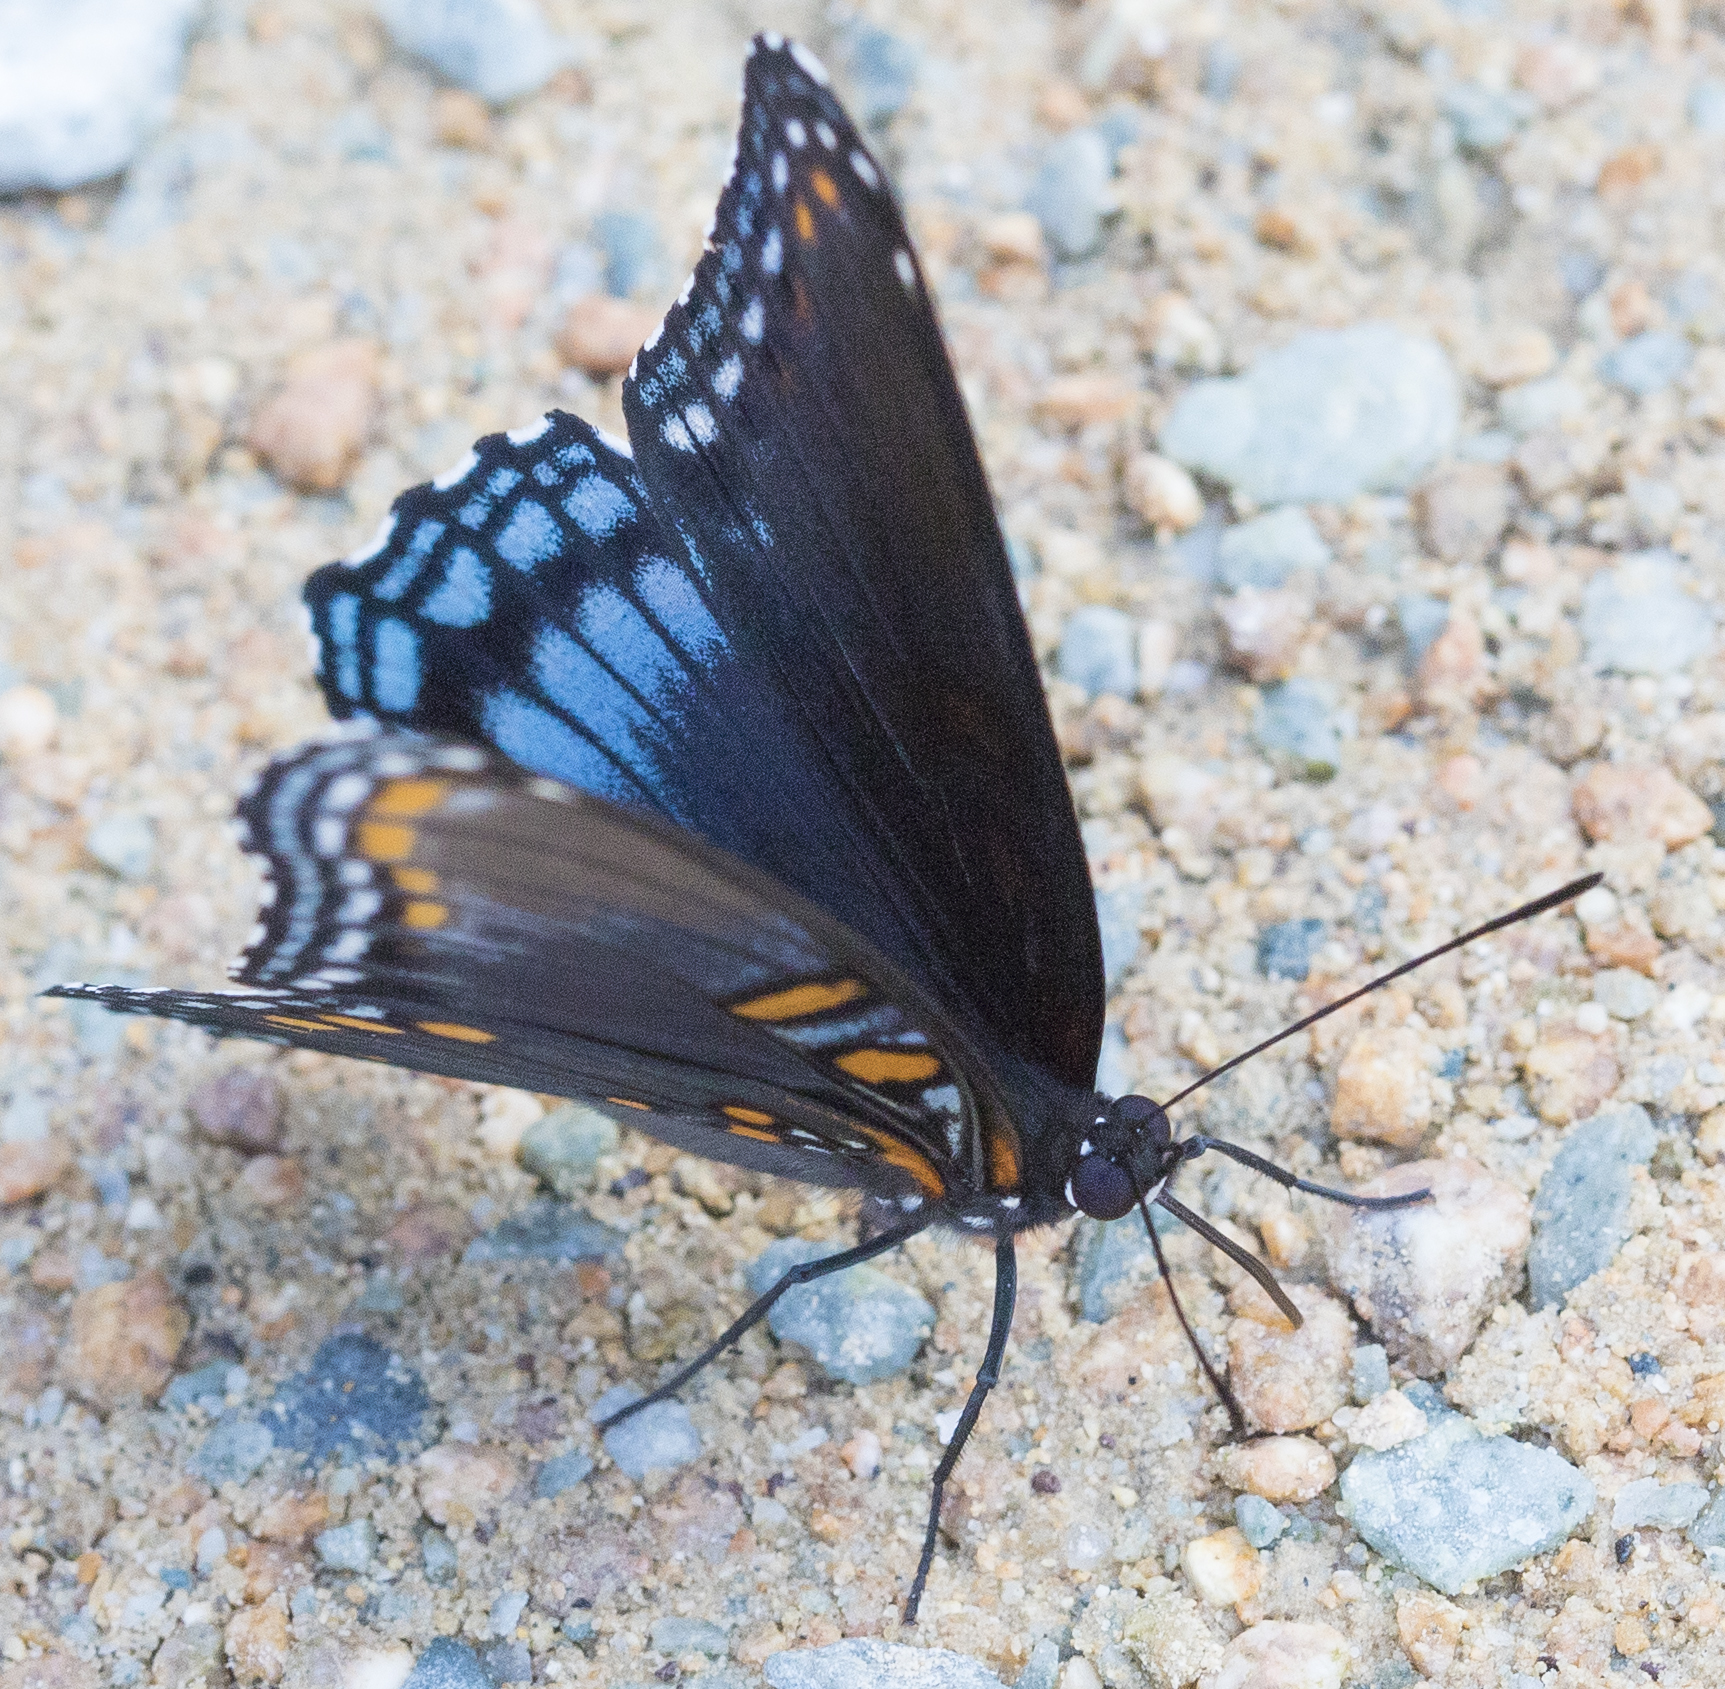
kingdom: Animalia
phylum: Arthropoda
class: Insecta
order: Lepidoptera
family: Nymphalidae
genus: Limenitis
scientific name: Limenitis astyanax
